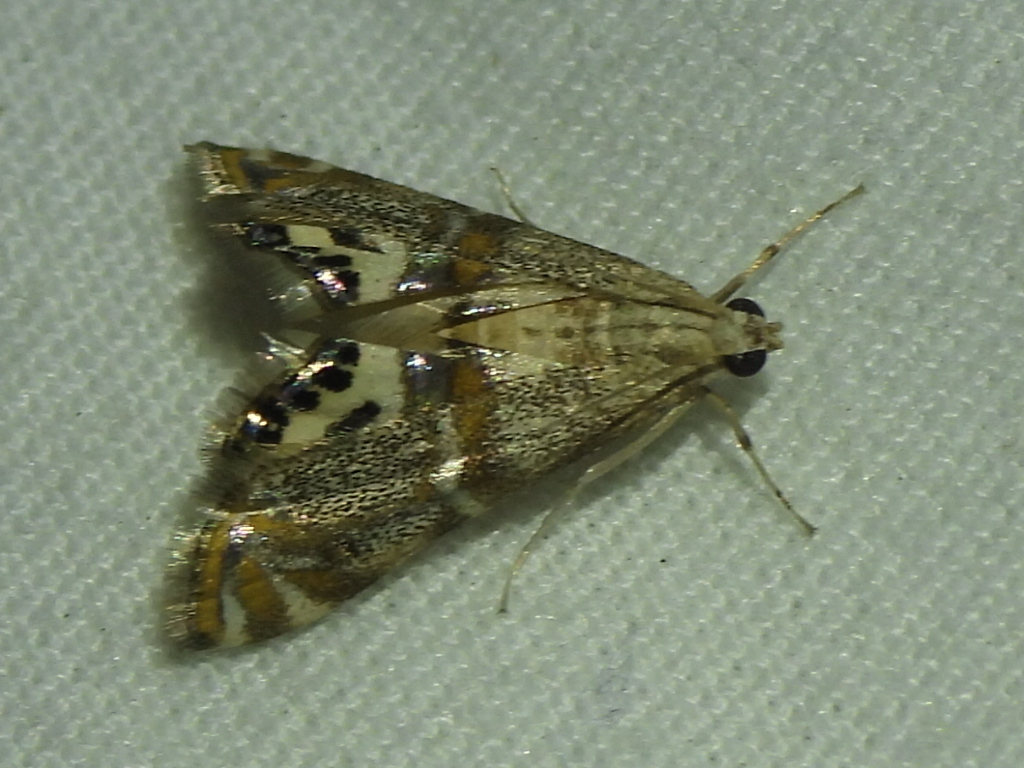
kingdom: Animalia
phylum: Arthropoda
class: Insecta
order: Lepidoptera
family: Crambidae
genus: Petrophila
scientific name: Petrophila bifascialis
